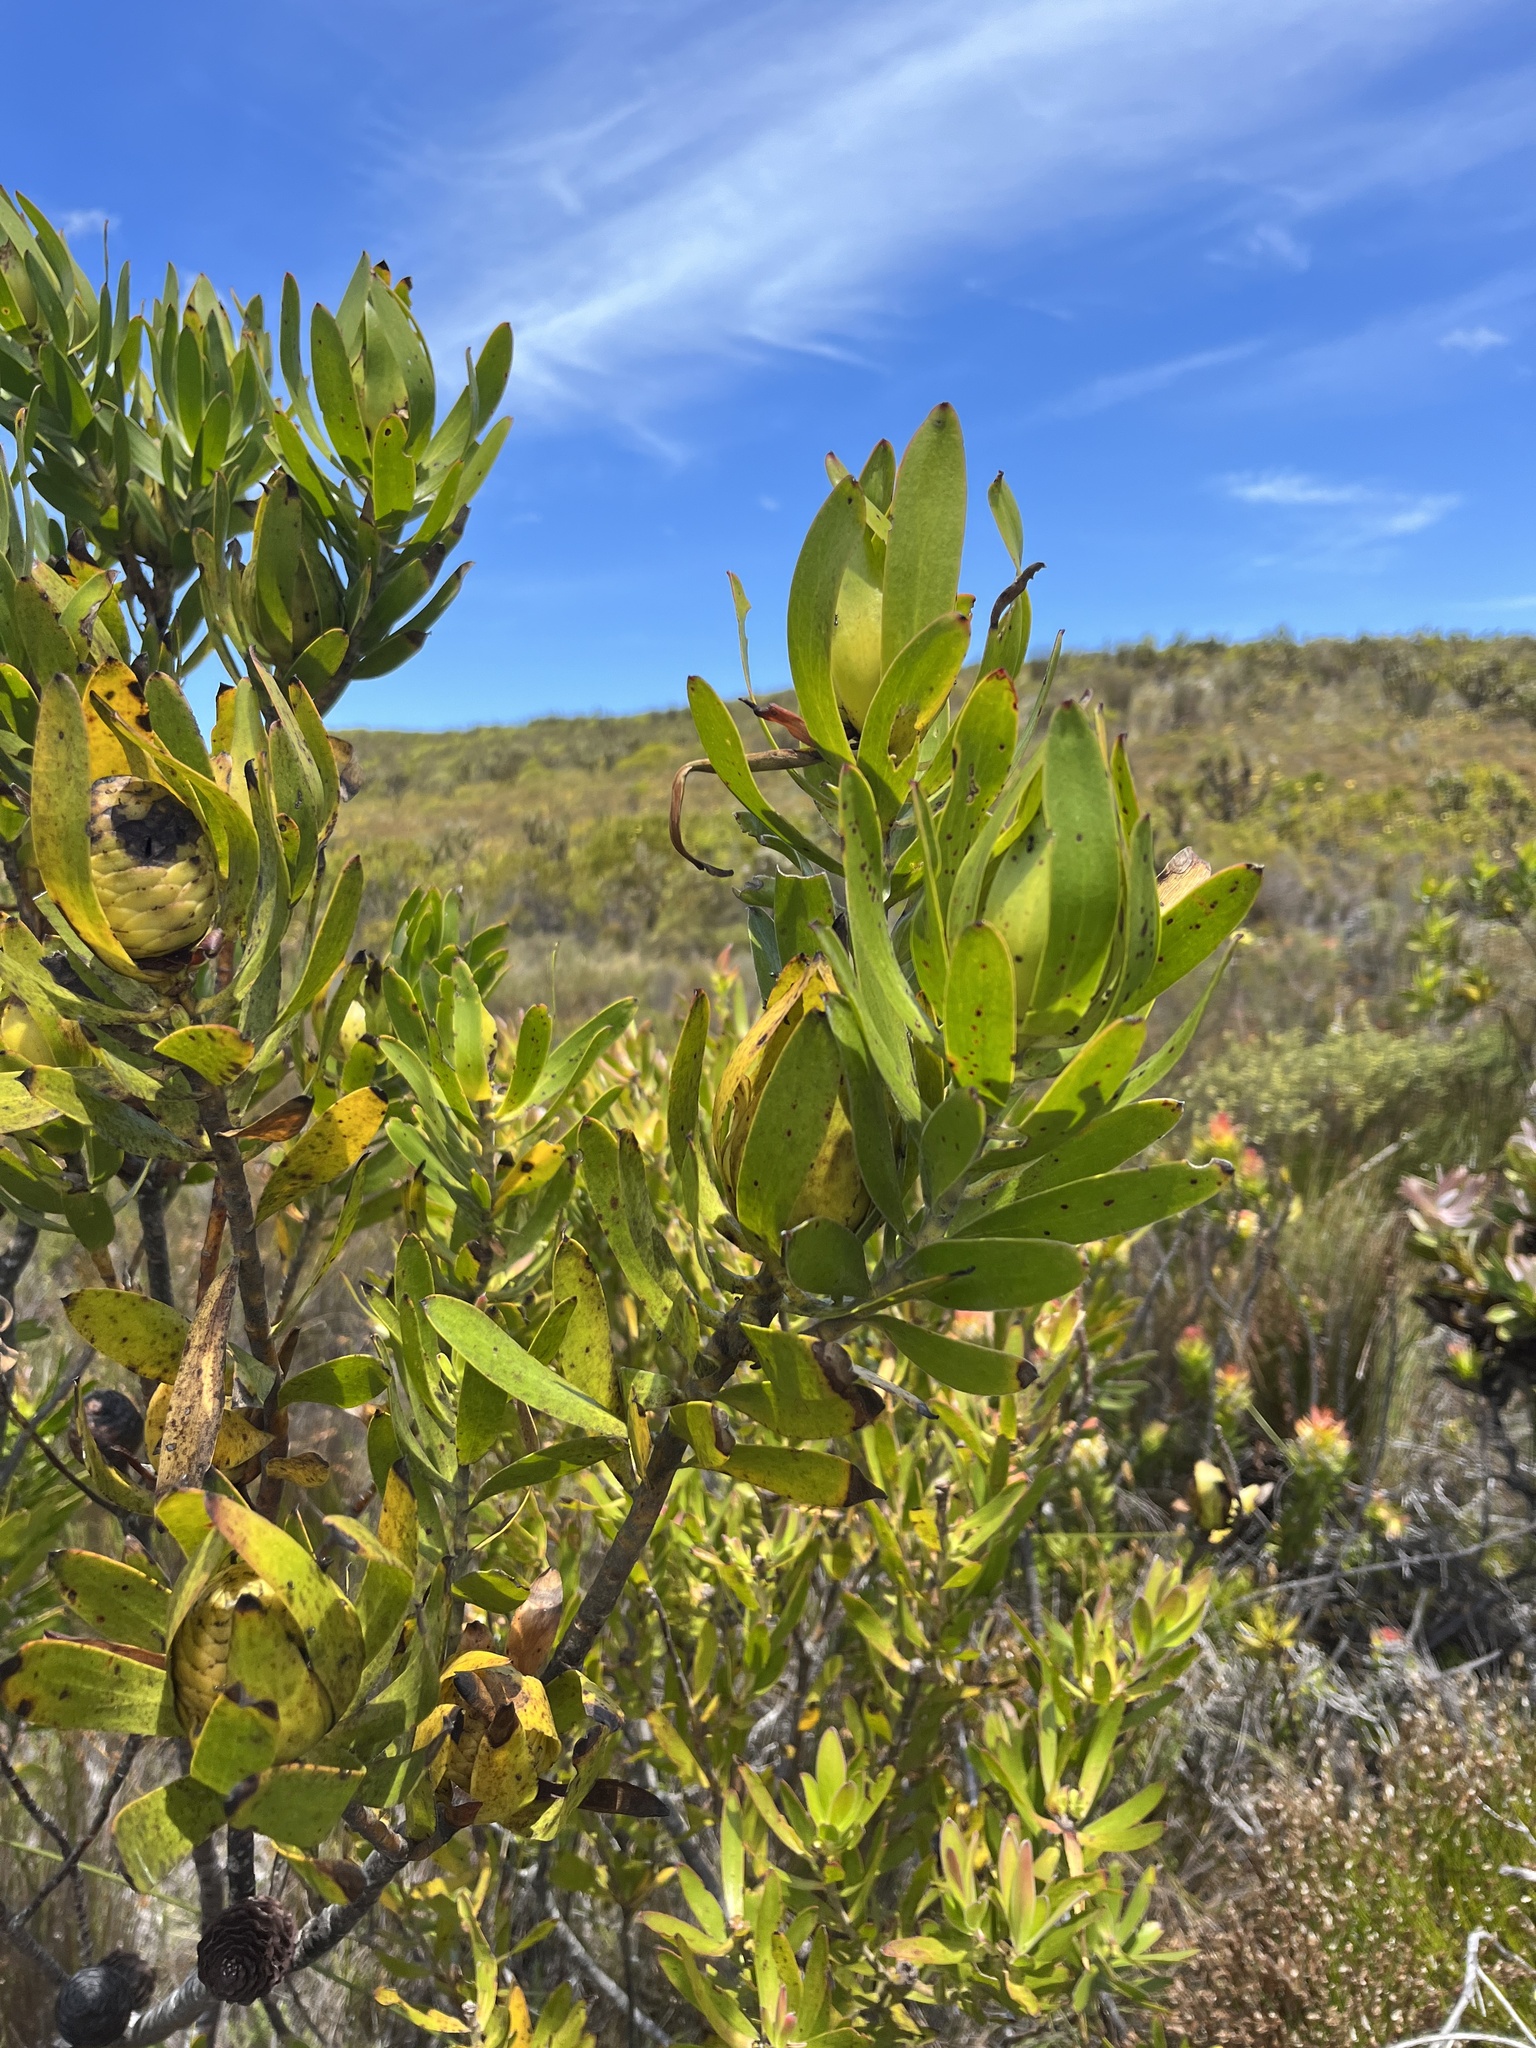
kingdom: Plantae
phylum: Tracheophyta
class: Magnoliopsida
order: Proteales
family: Proteaceae
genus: Leucadendron
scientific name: Leucadendron laureolum
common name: Golden sunshinebush
